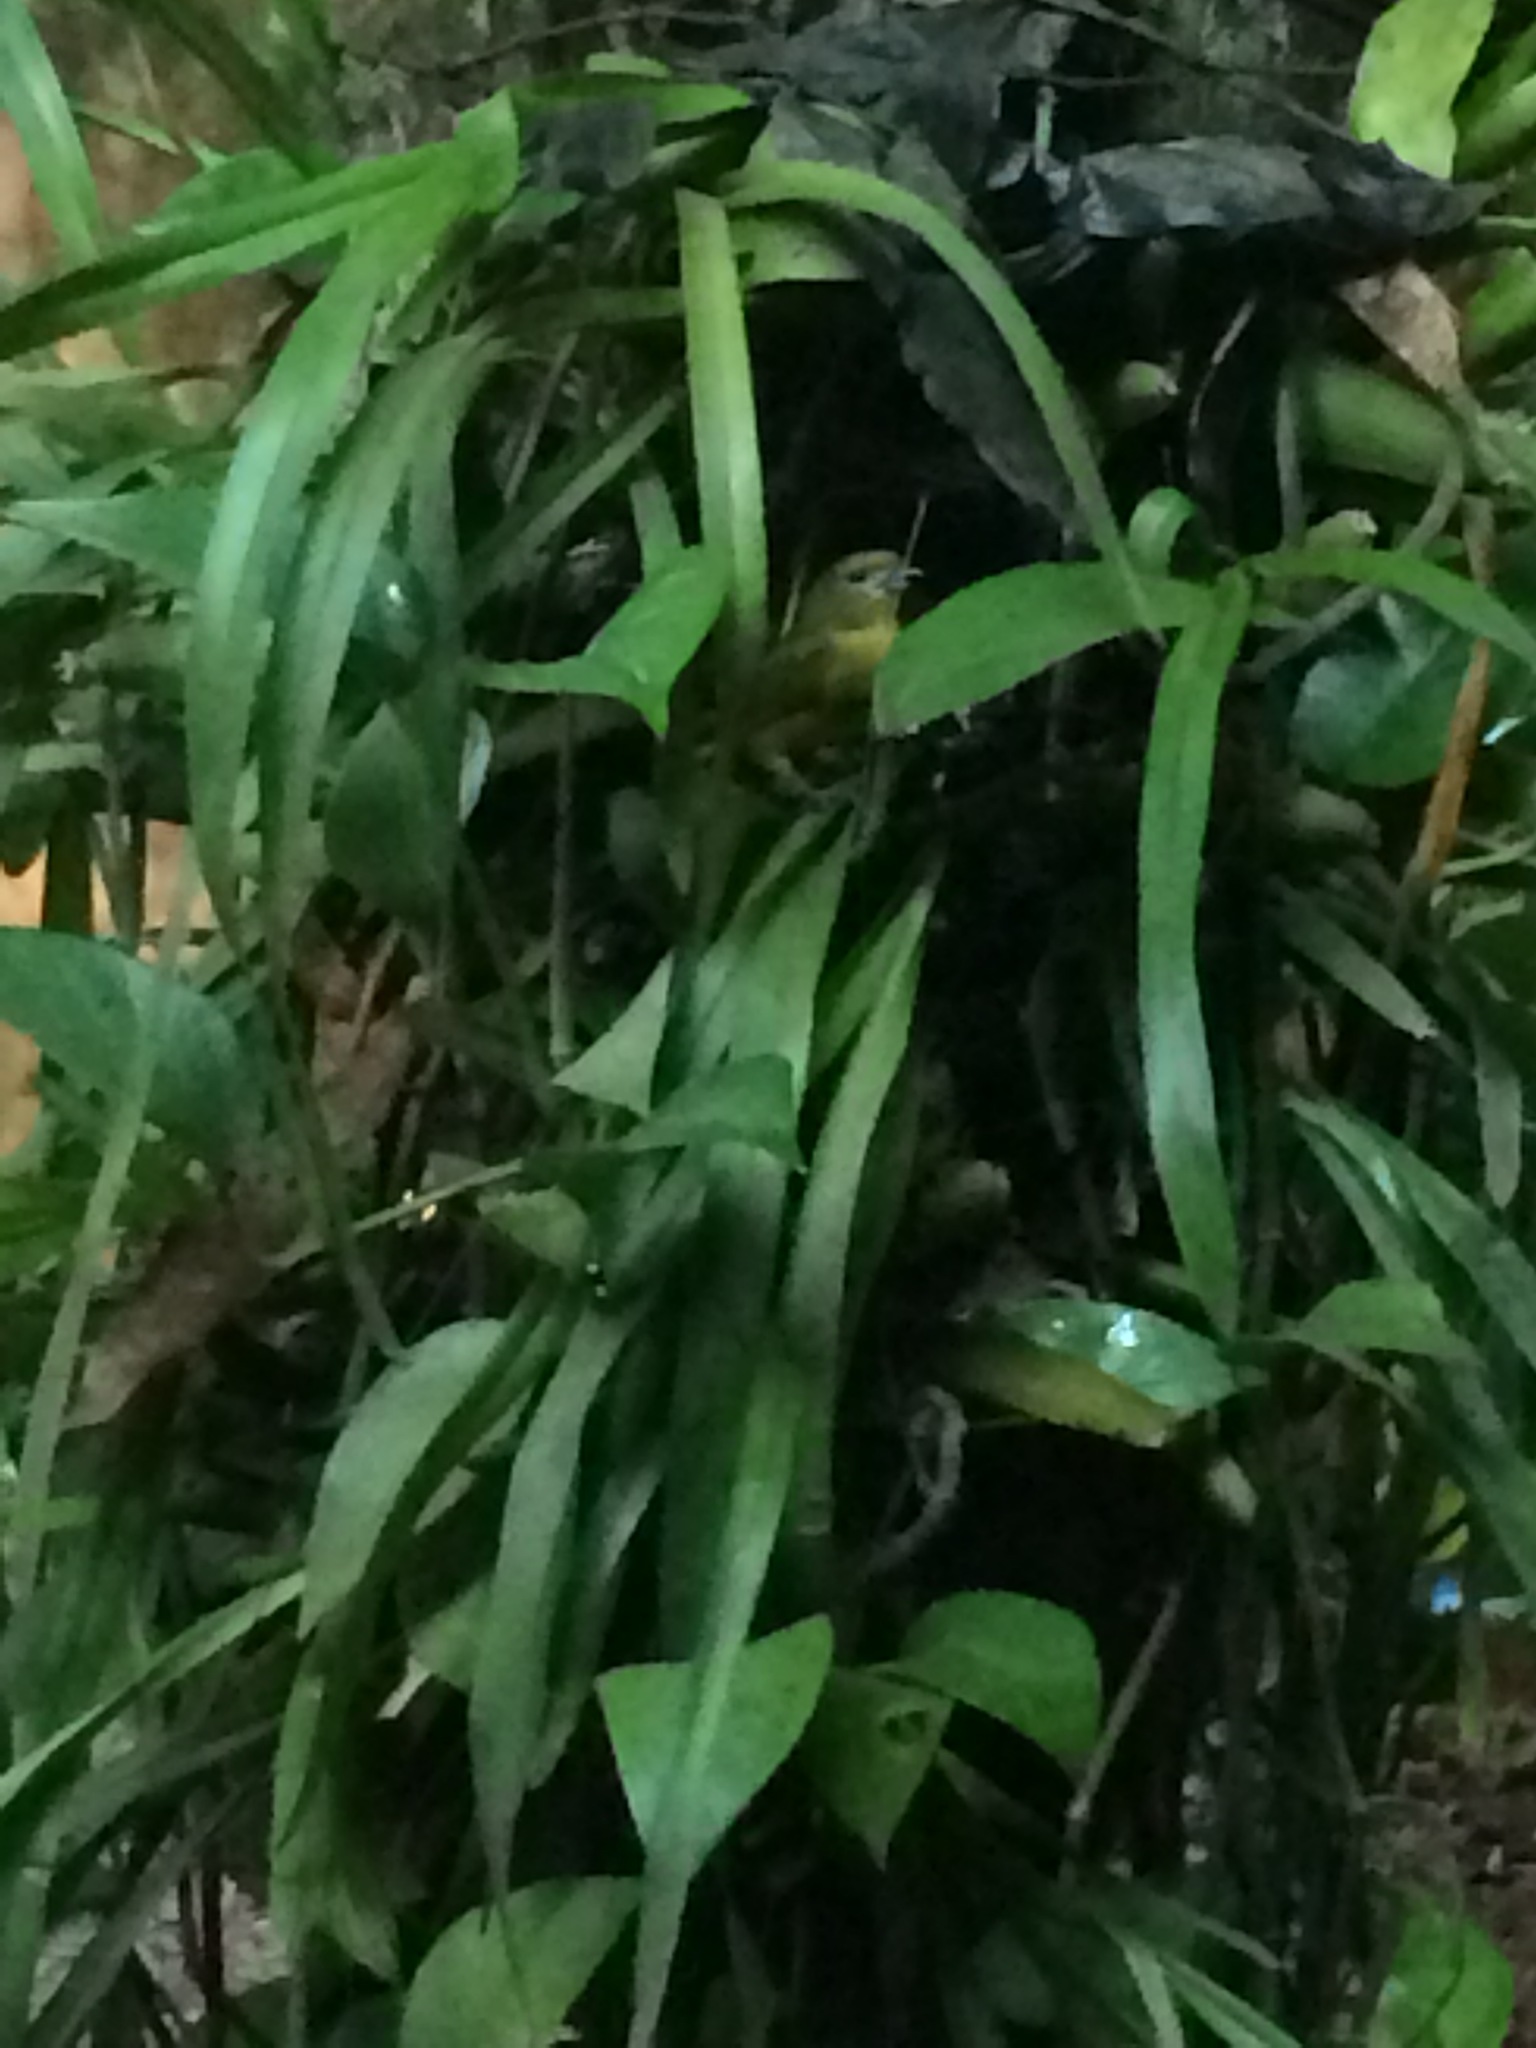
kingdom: Animalia
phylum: Chordata
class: Aves
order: Passeriformes
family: Fringillidae
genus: Euphonia
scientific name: Euphonia violacea
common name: Violaceous euphonia
